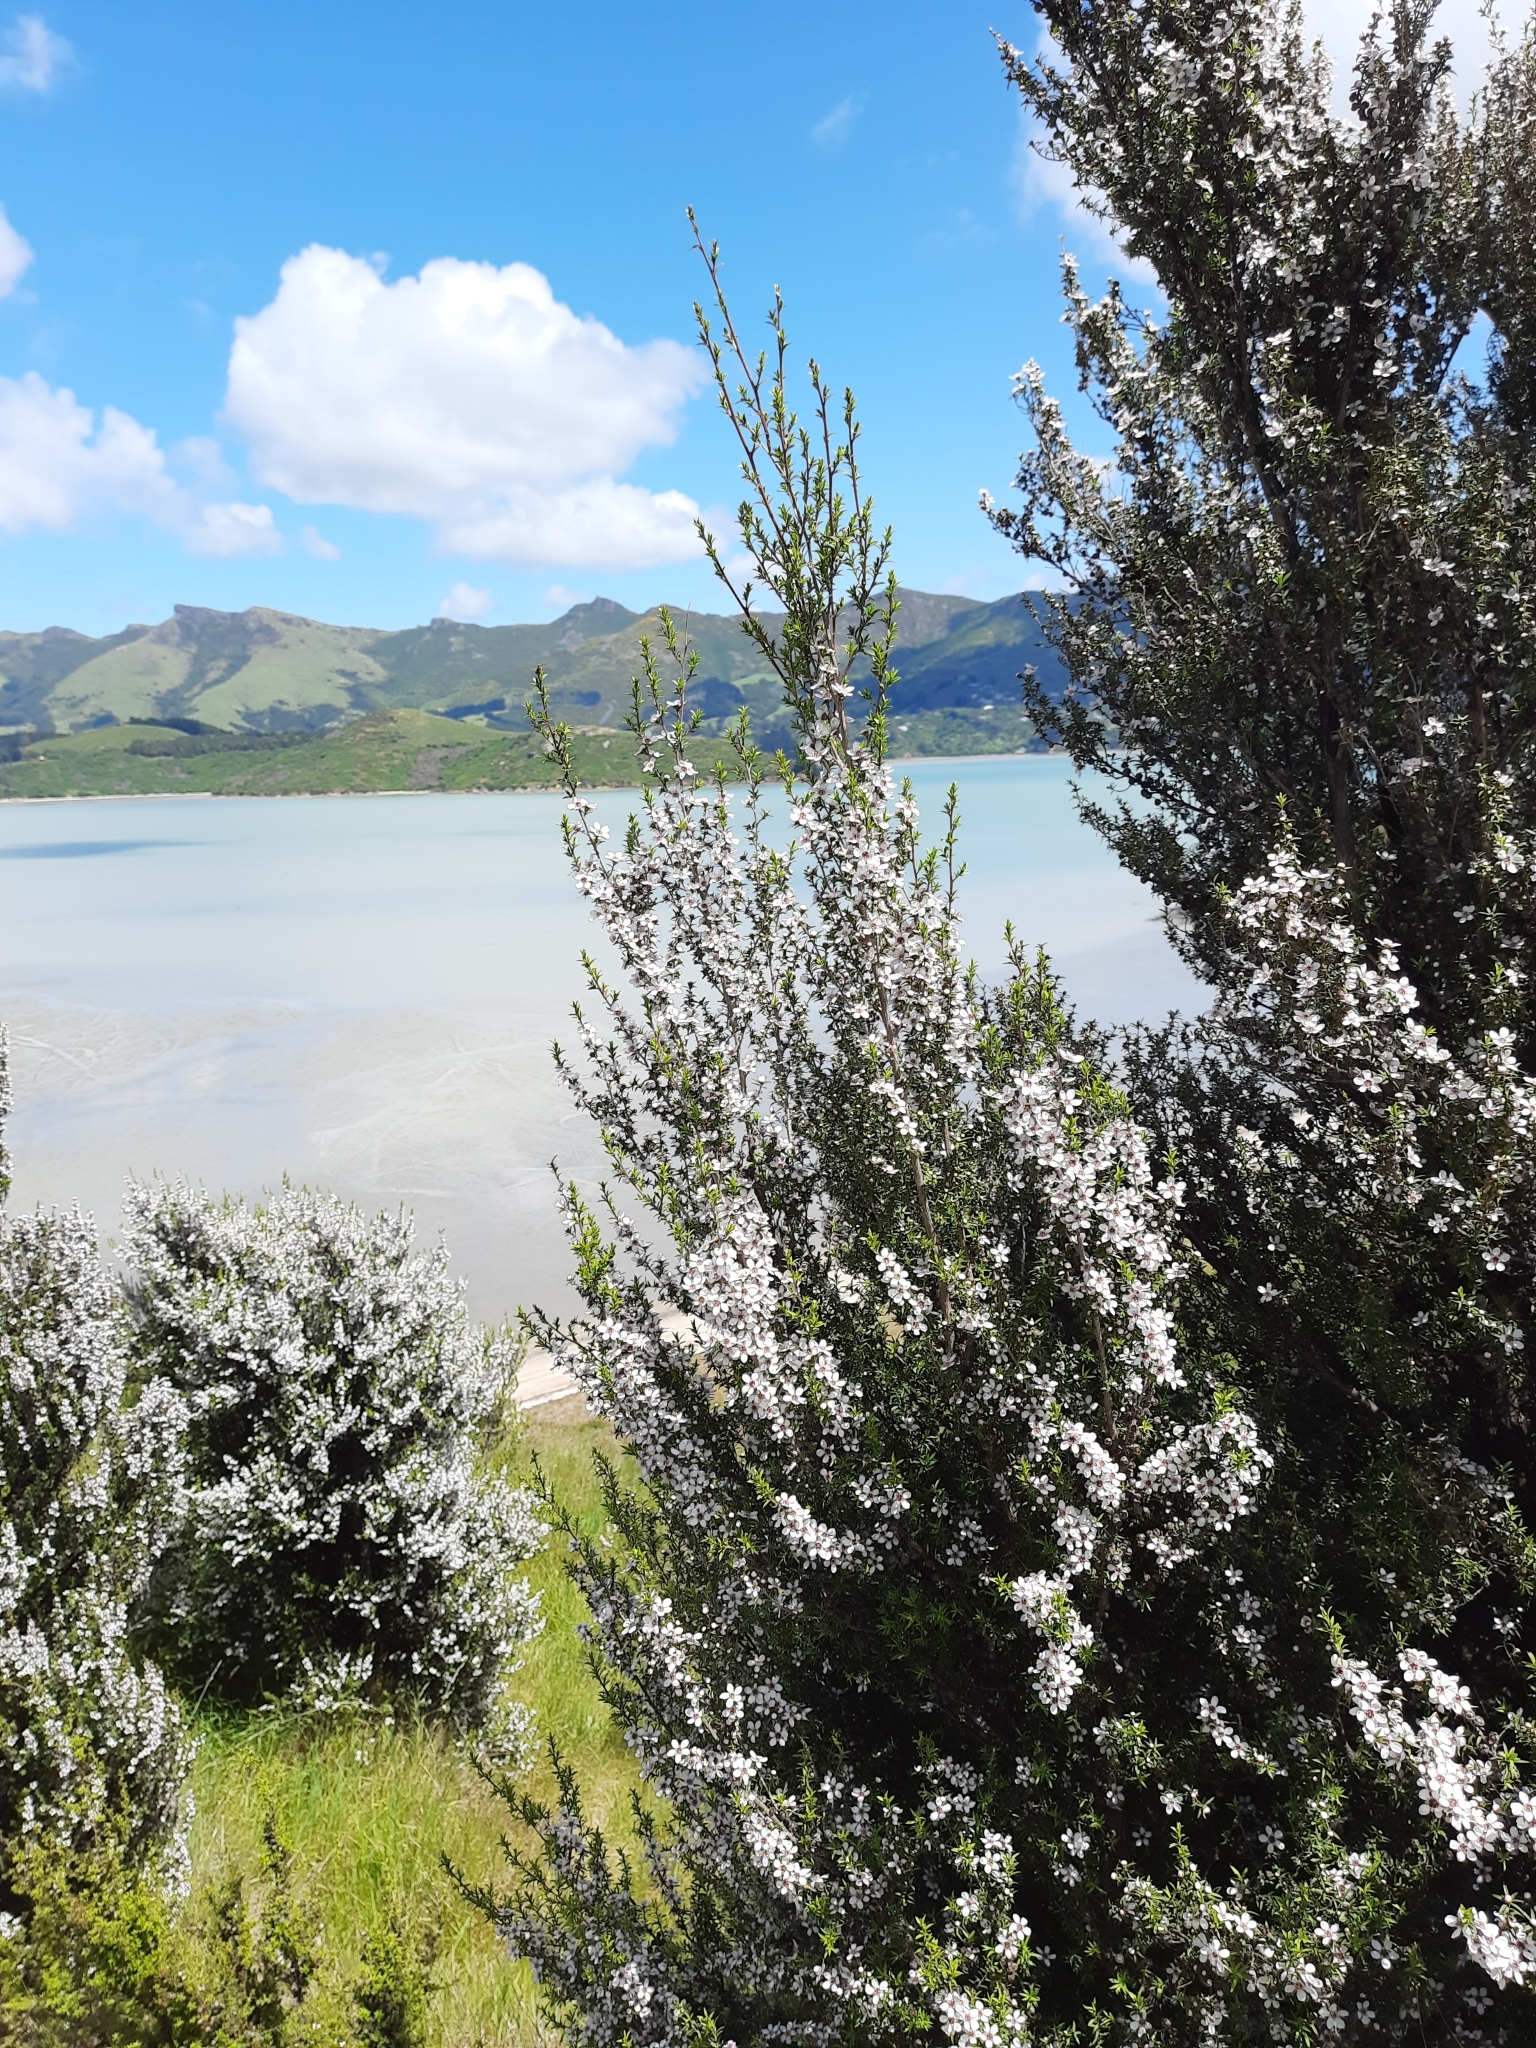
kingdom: Plantae
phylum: Tracheophyta
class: Magnoliopsida
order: Myrtales
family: Myrtaceae
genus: Leptospermum
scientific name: Leptospermum scoparium
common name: Broom tea-tree
